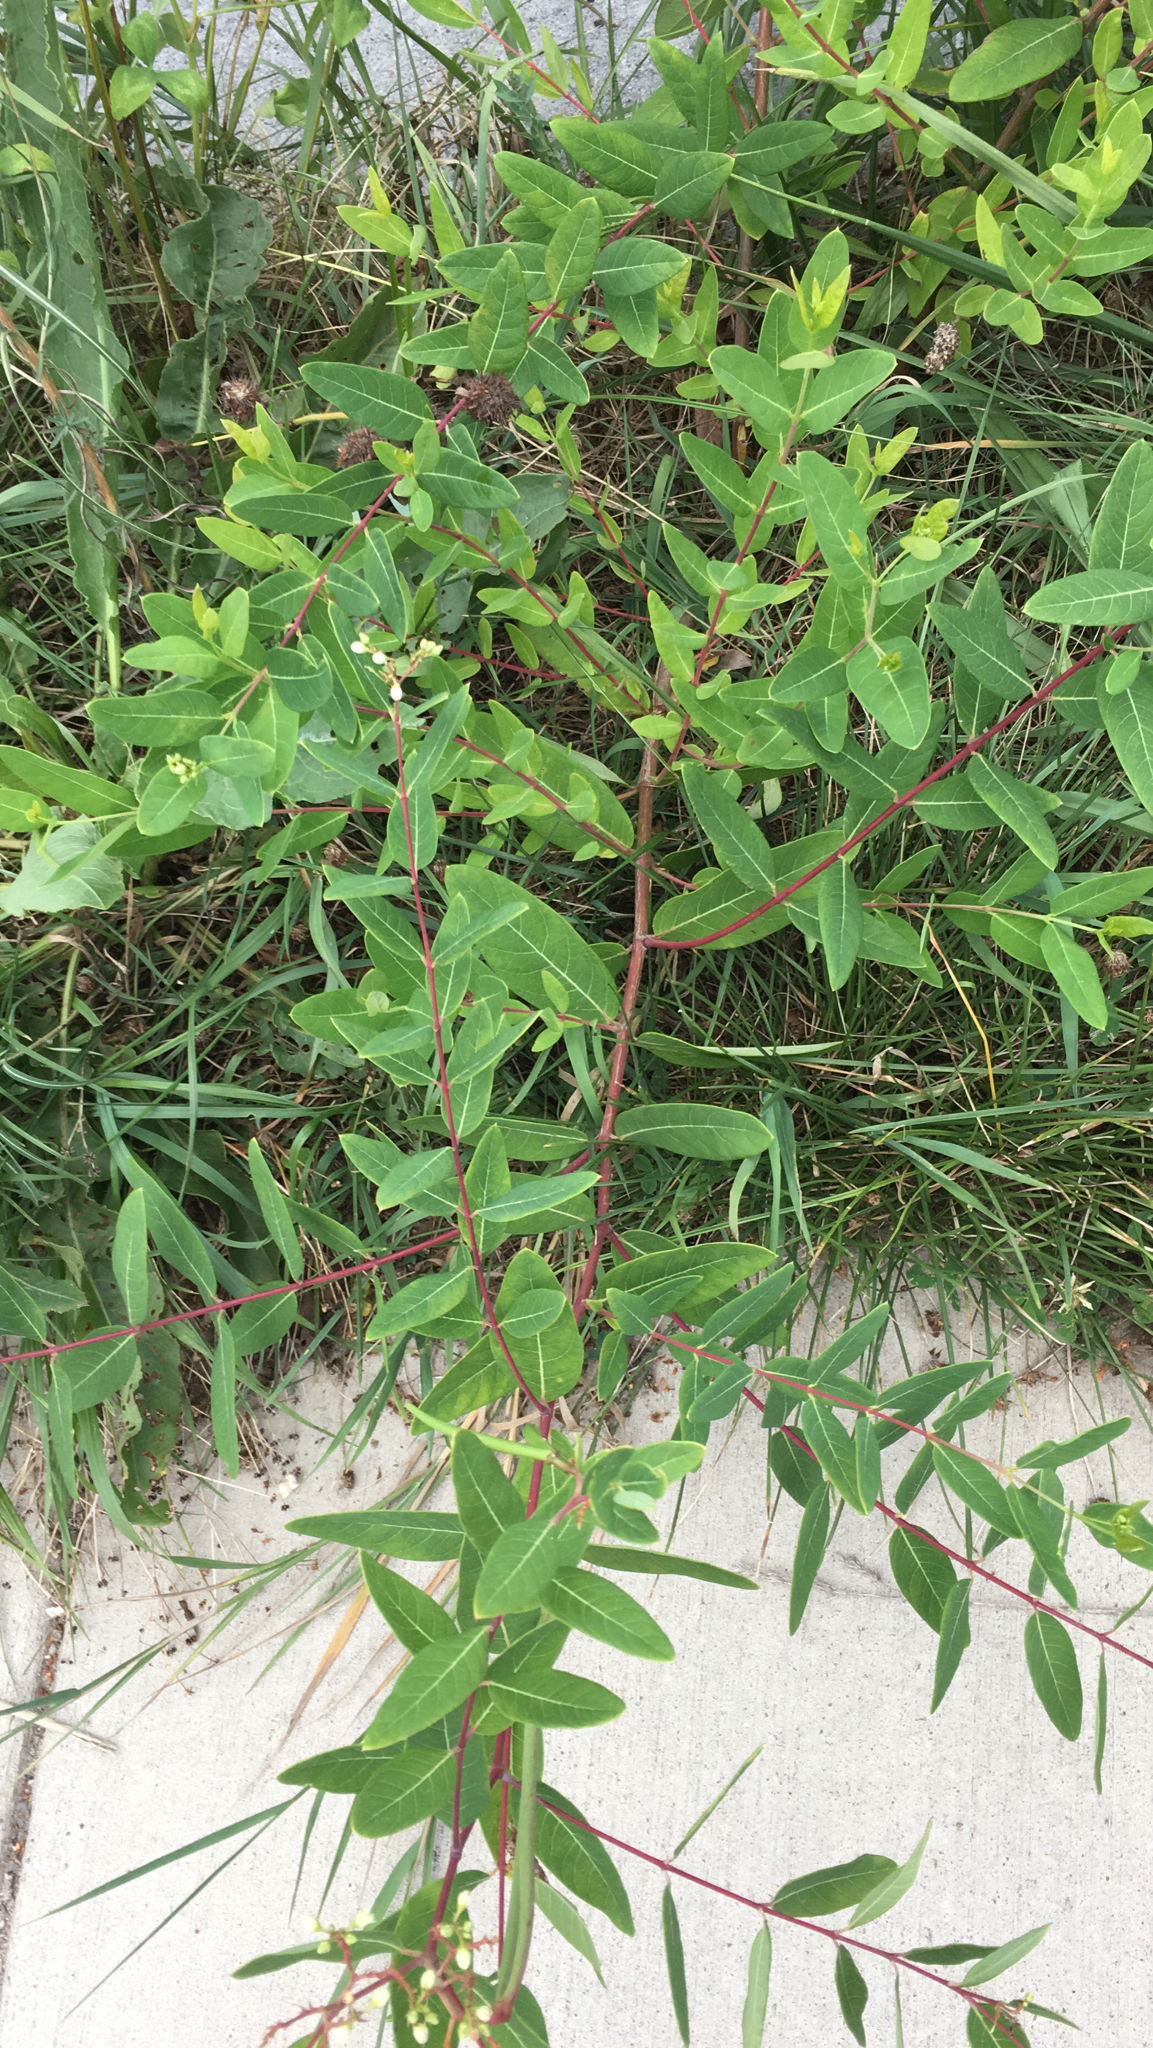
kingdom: Plantae
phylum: Tracheophyta
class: Magnoliopsida
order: Gentianales
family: Apocynaceae
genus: Apocynum
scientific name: Apocynum cannabinum
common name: Hemp dogbane
